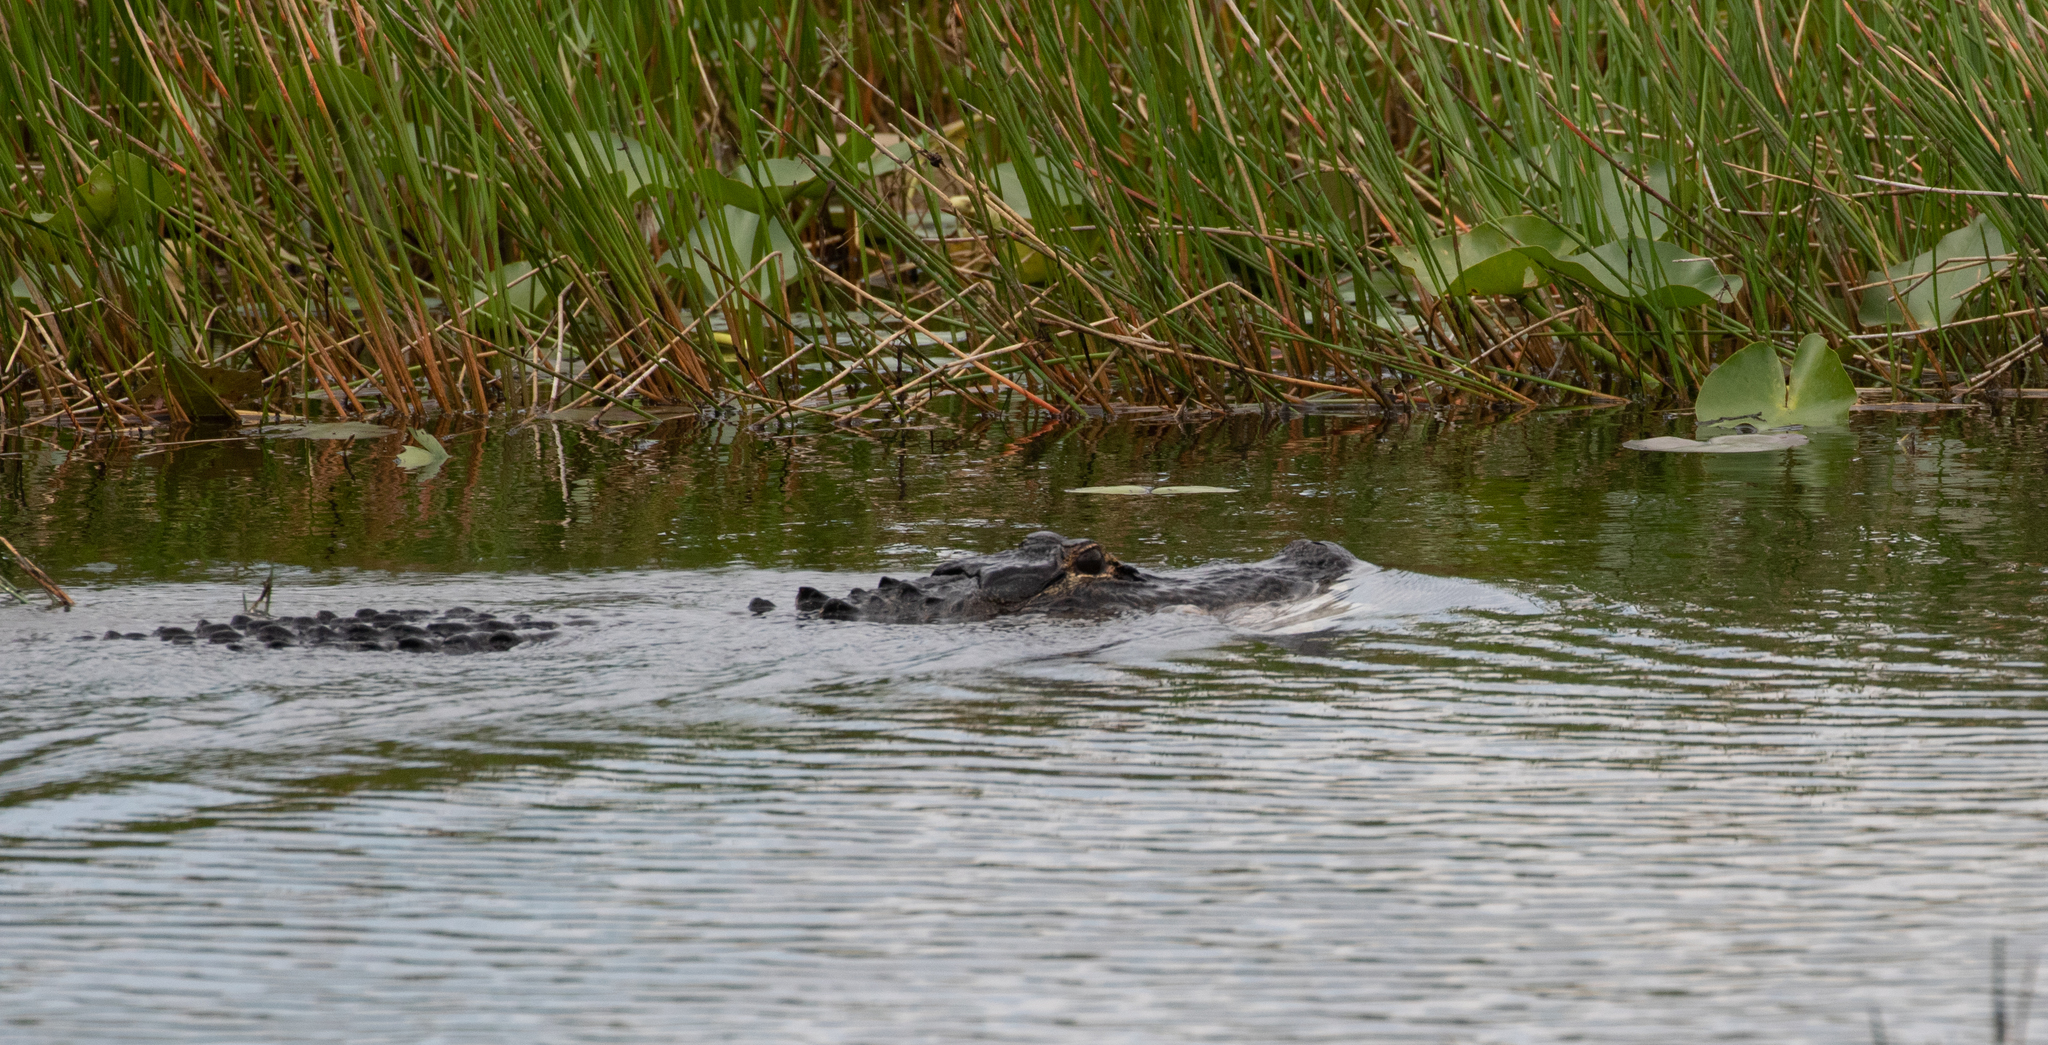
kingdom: Animalia
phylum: Chordata
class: Crocodylia
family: Alligatoridae
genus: Alligator
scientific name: Alligator mississippiensis
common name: American alligator
